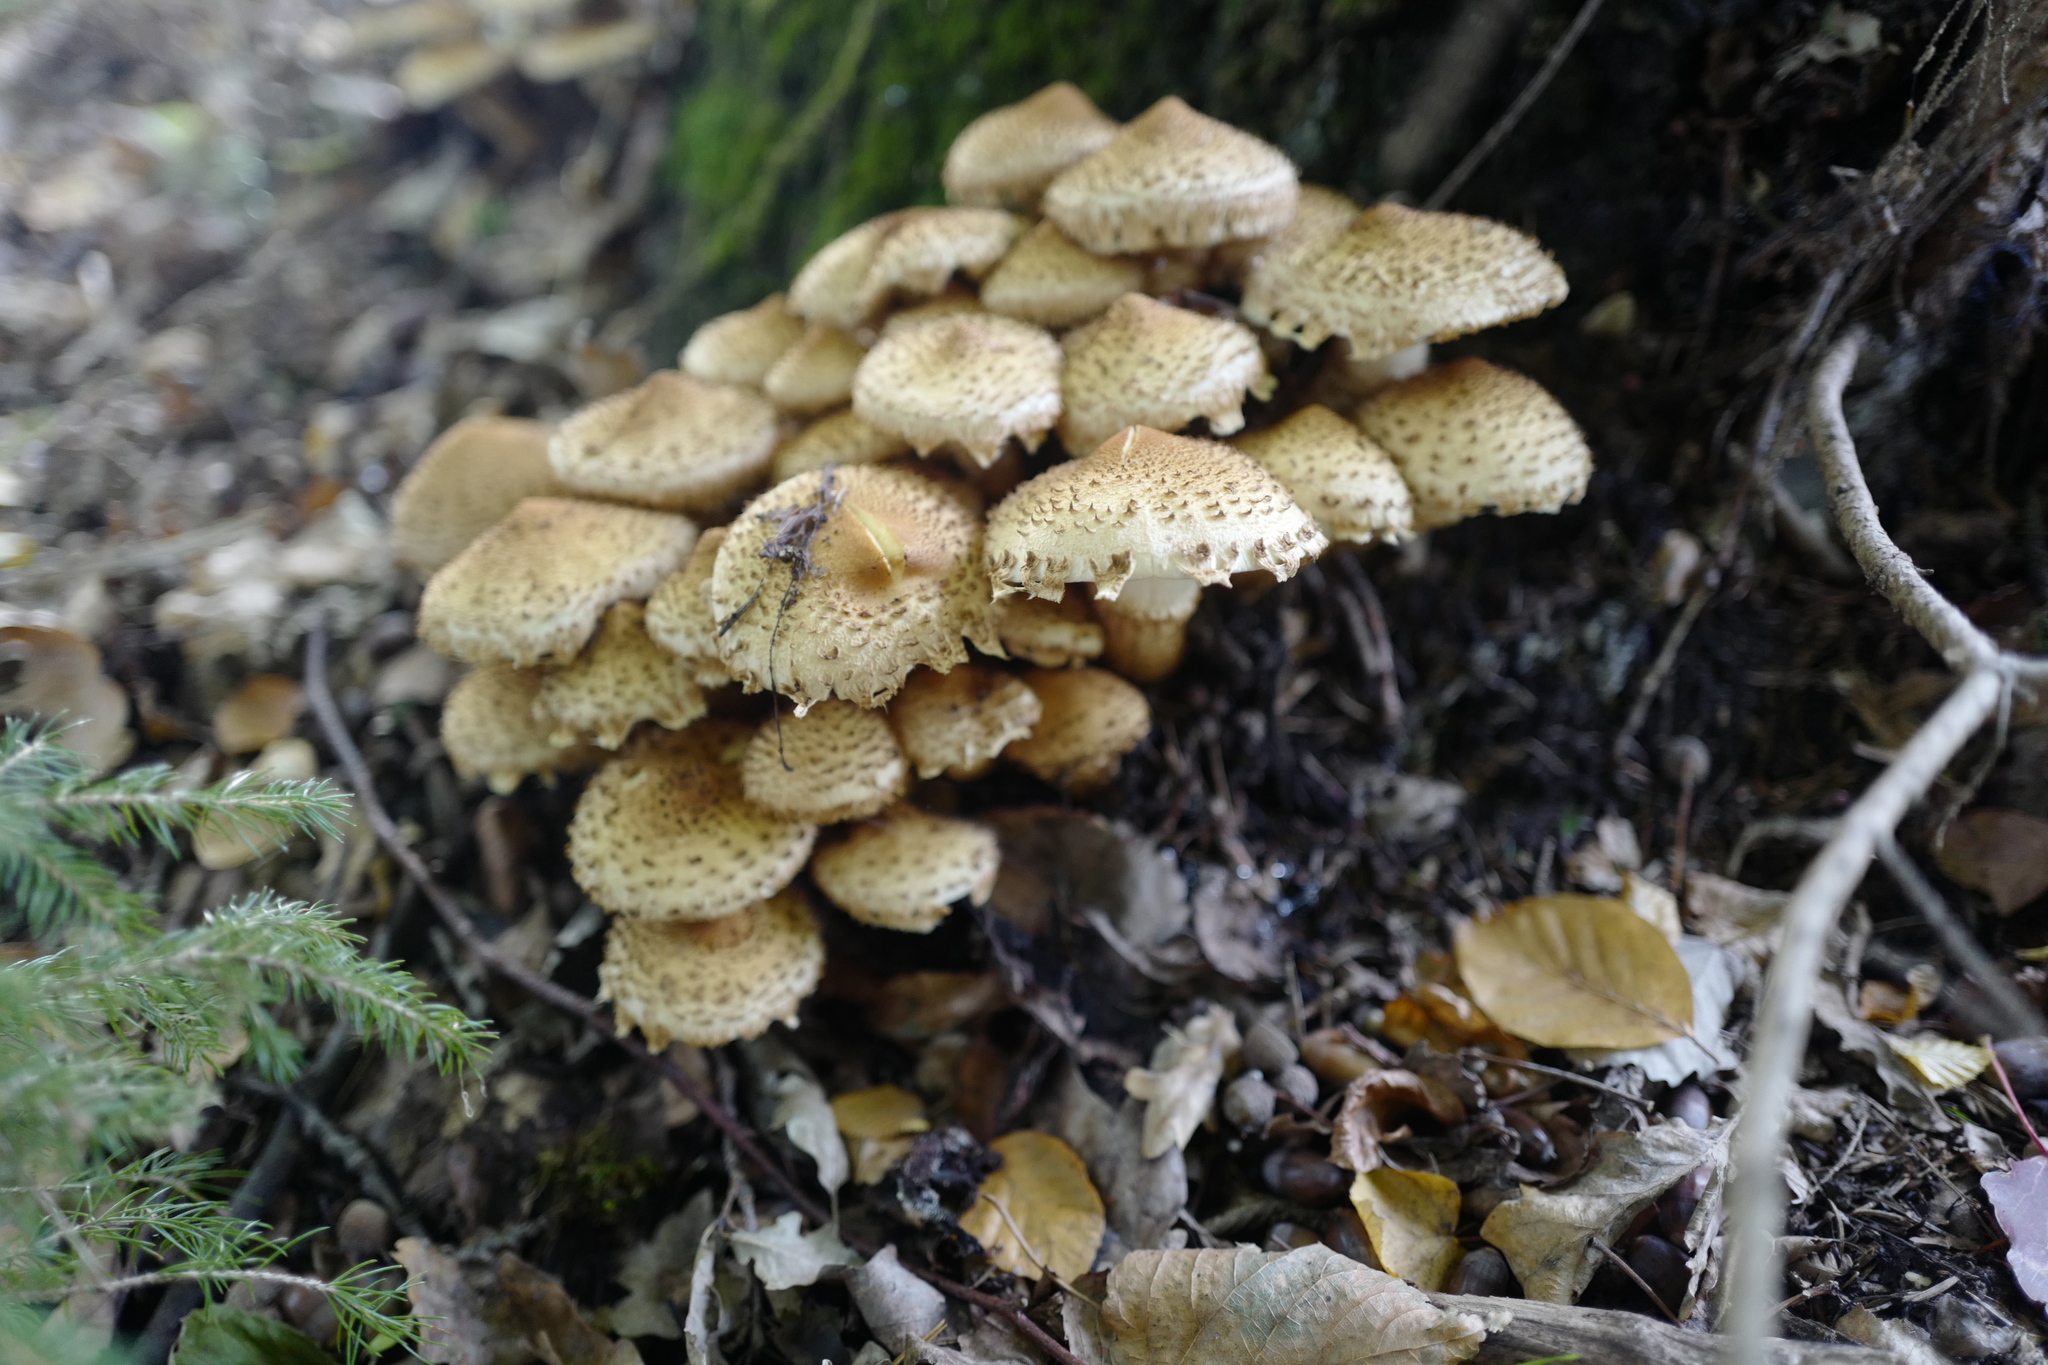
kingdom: Fungi
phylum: Basidiomycota
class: Agaricomycetes
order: Agaricales
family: Strophariaceae
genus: Pholiota
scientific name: Pholiota squarrosa
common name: Shaggy pholiota
